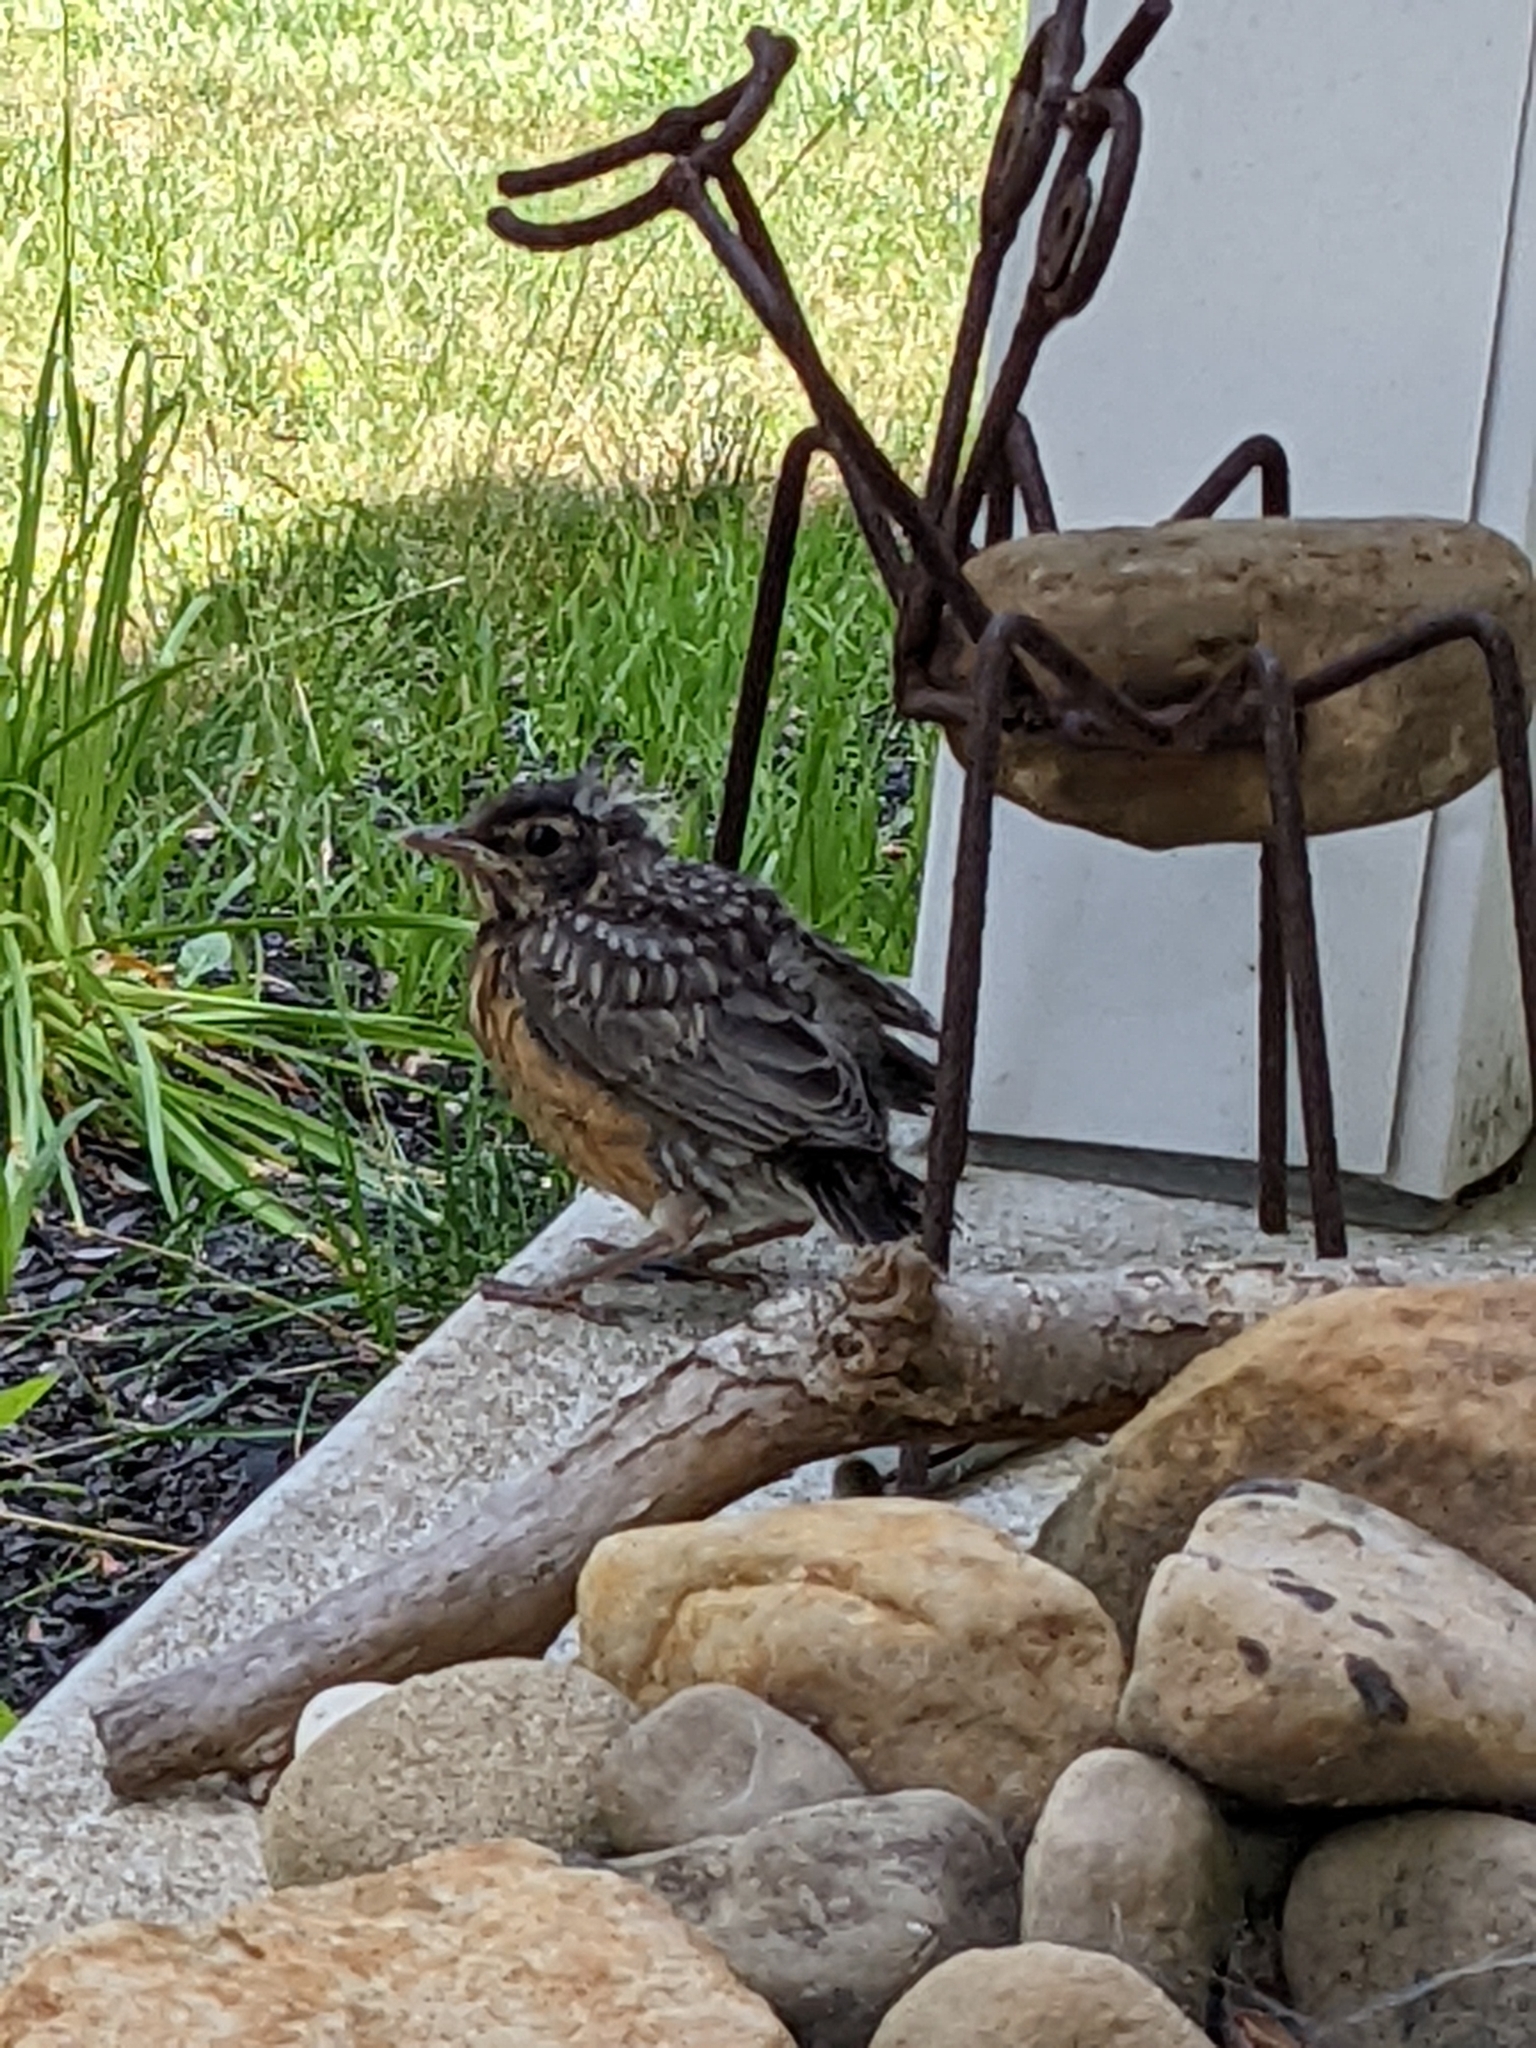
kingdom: Animalia
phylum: Chordata
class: Aves
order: Passeriformes
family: Turdidae
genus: Turdus
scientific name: Turdus migratorius
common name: American robin
